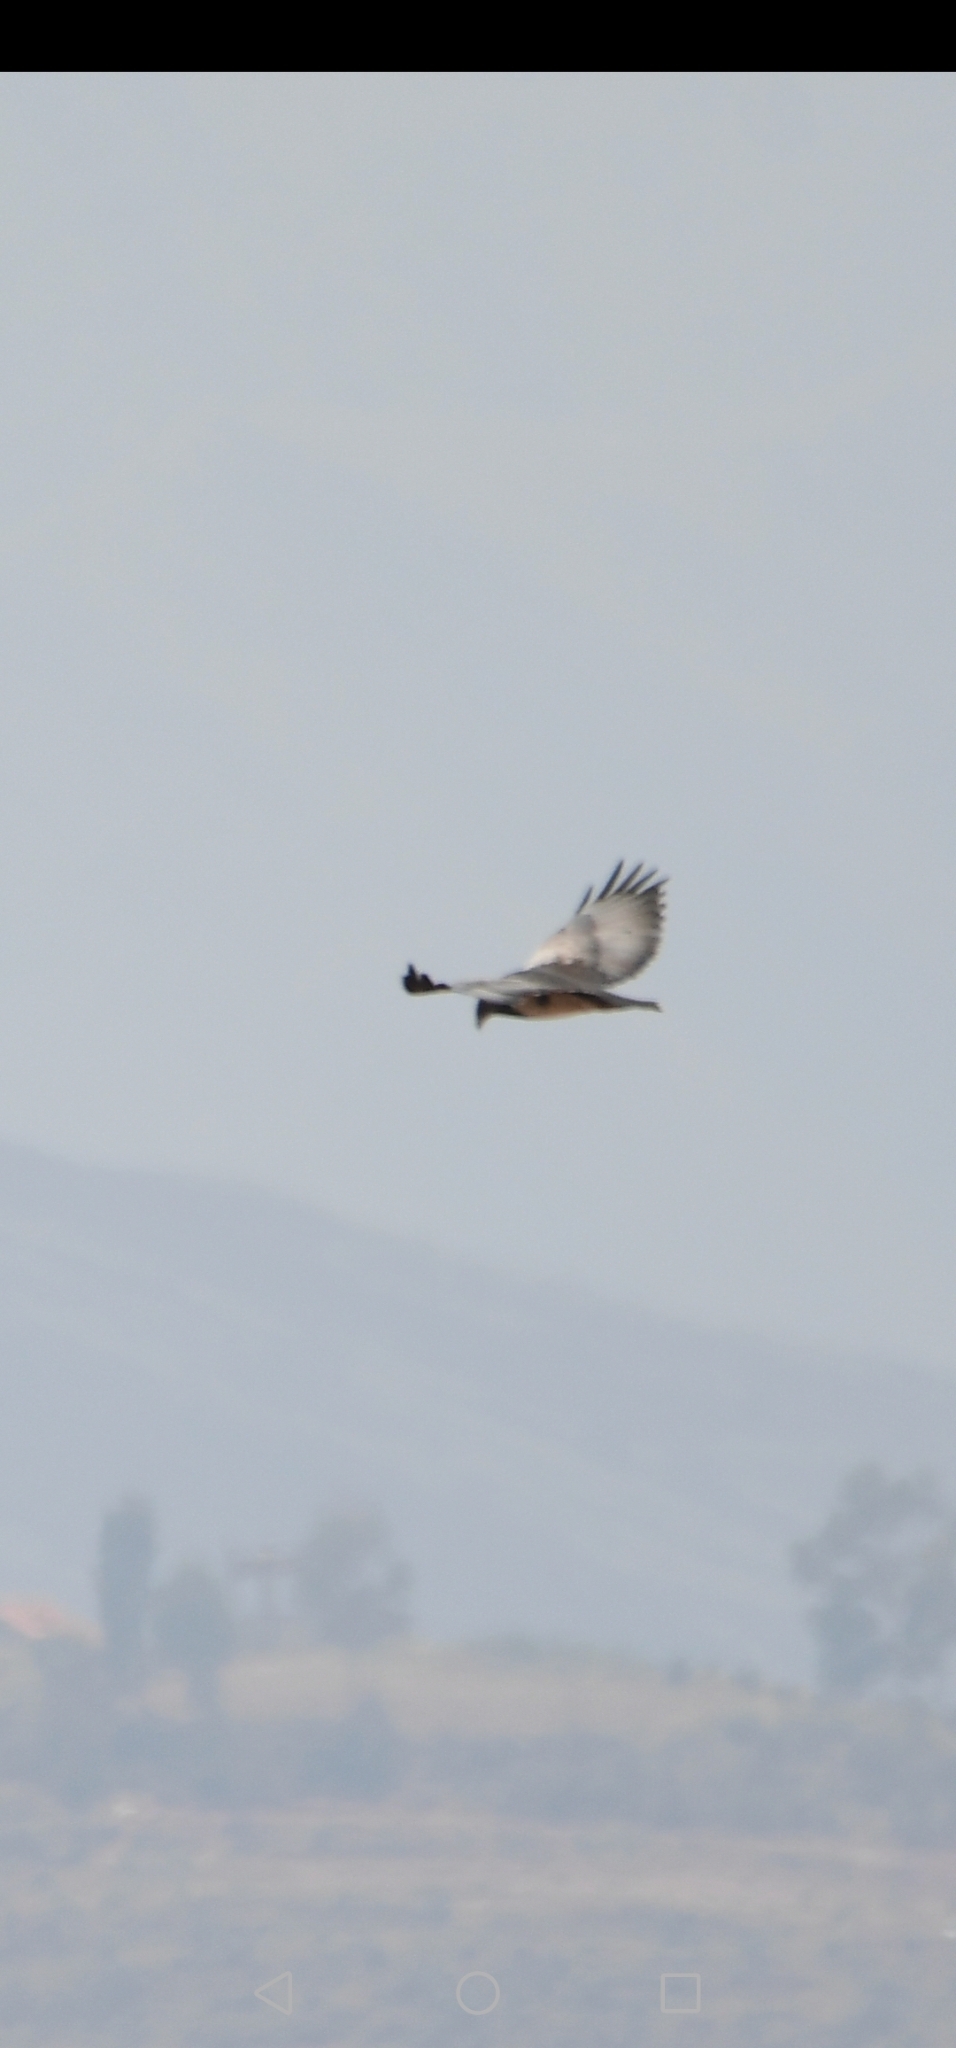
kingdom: Animalia
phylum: Chordata
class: Aves
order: Accipitriformes
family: Accipitridae
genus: Geranoaetus
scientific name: Geranoaetus melanoleucus
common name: Black-chested buzzard-eagle
